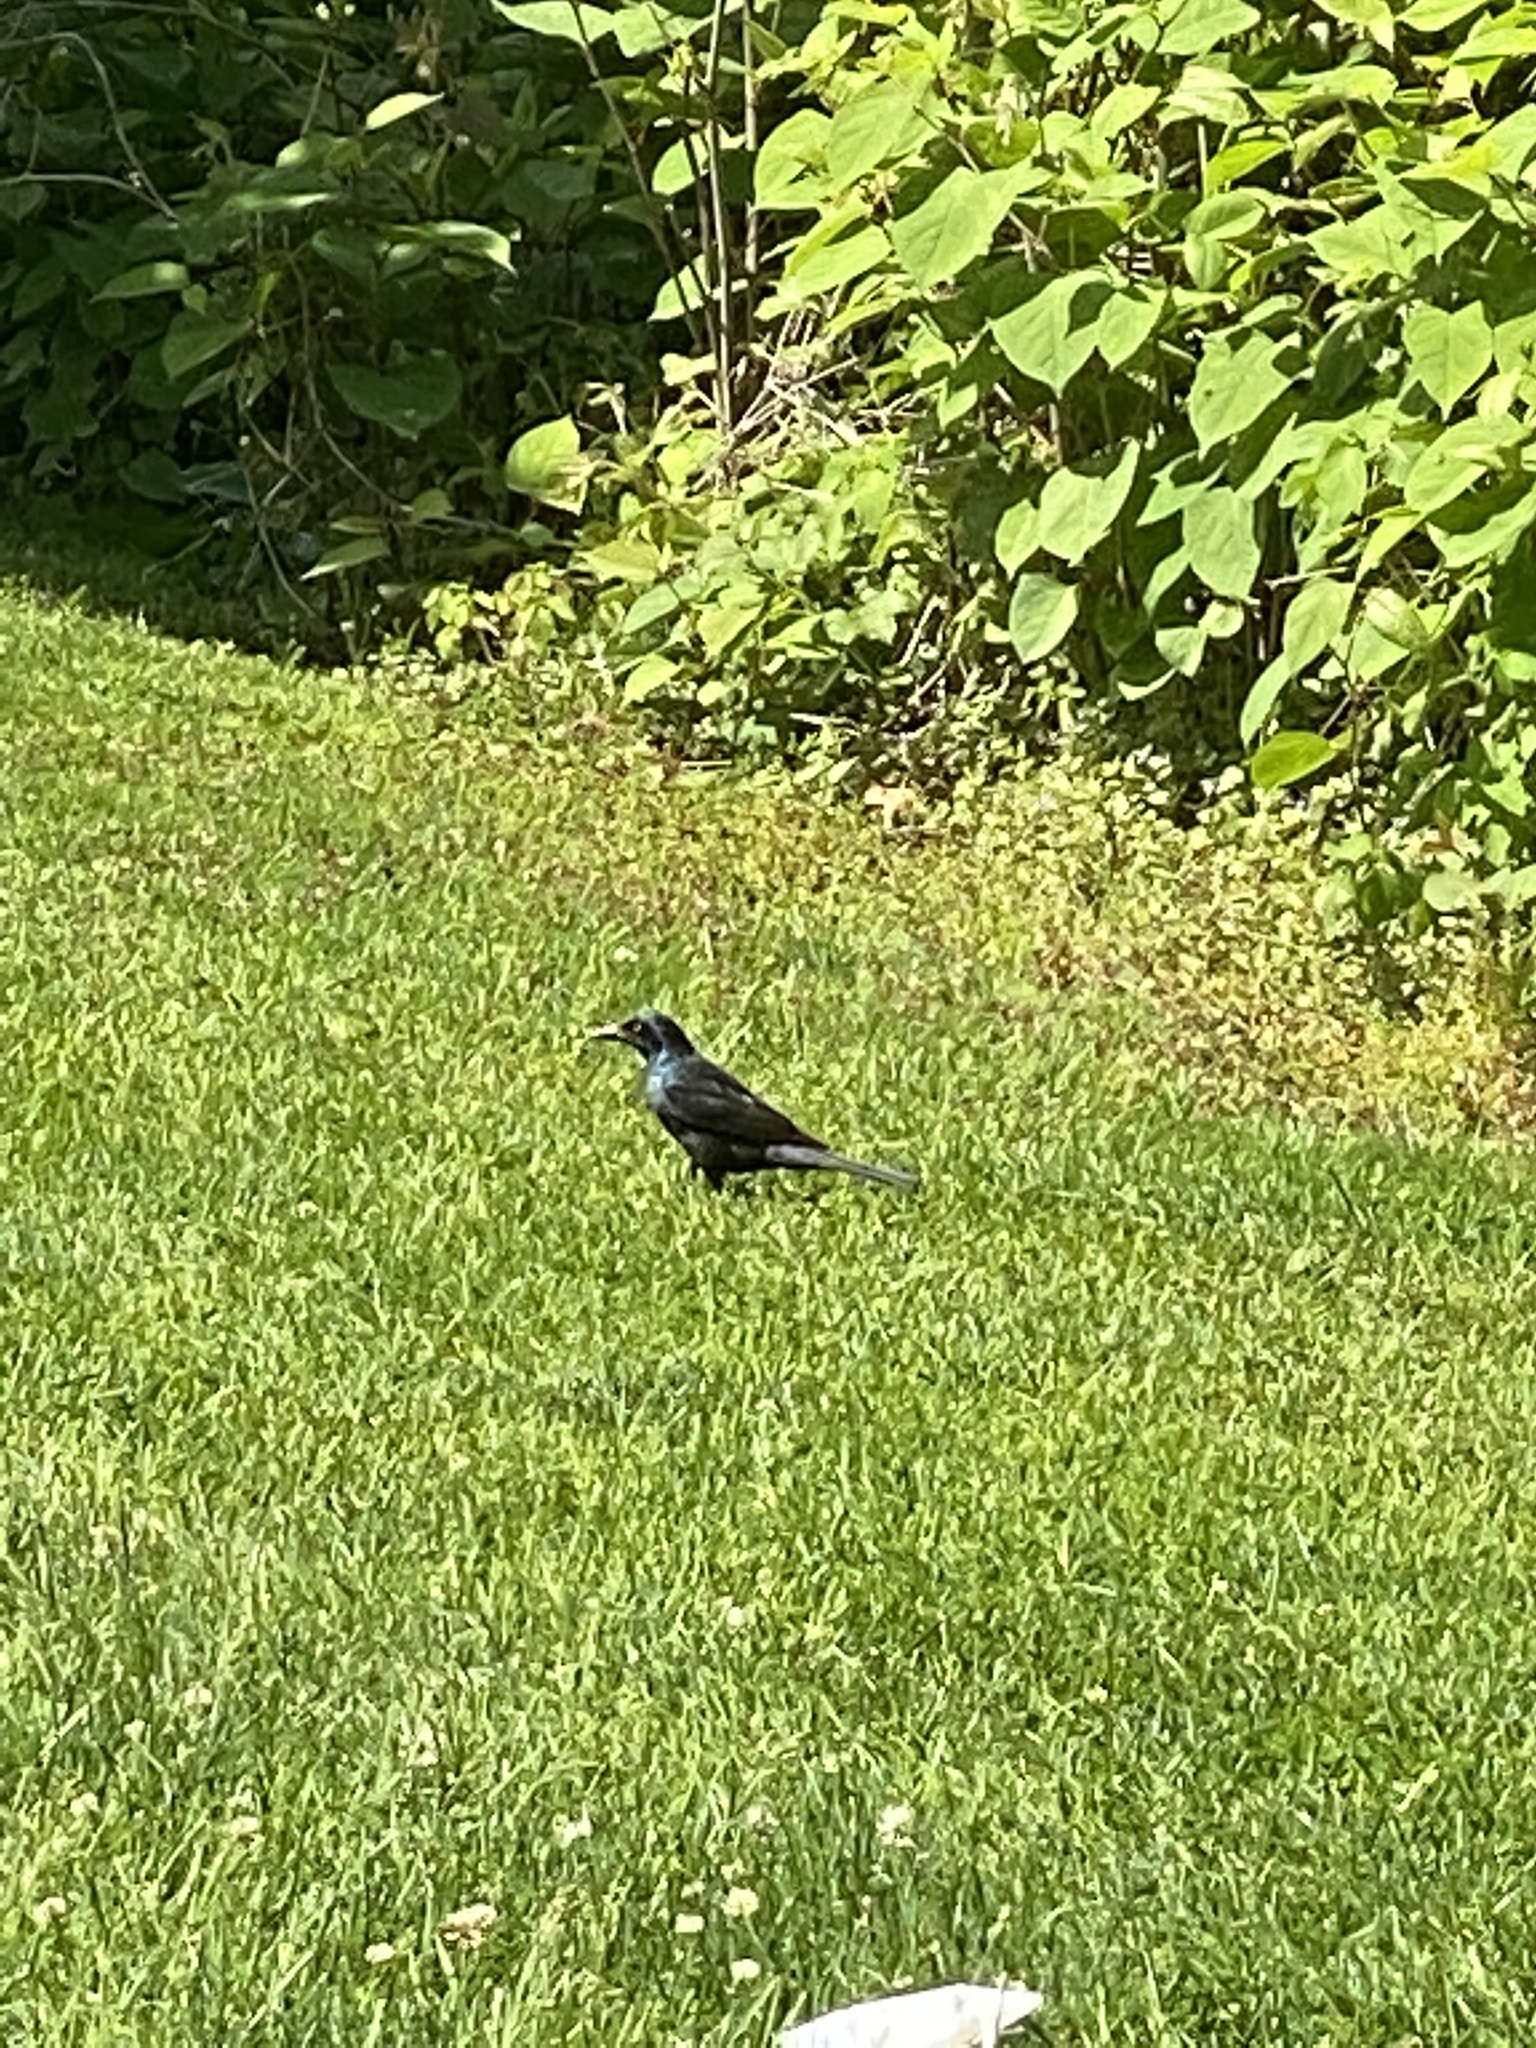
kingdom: Animalia
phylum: Chordata
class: Aves
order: Passeriformes
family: Icteridae
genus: Quiscalus
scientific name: Quiscalus quiscula
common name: Common grackle
